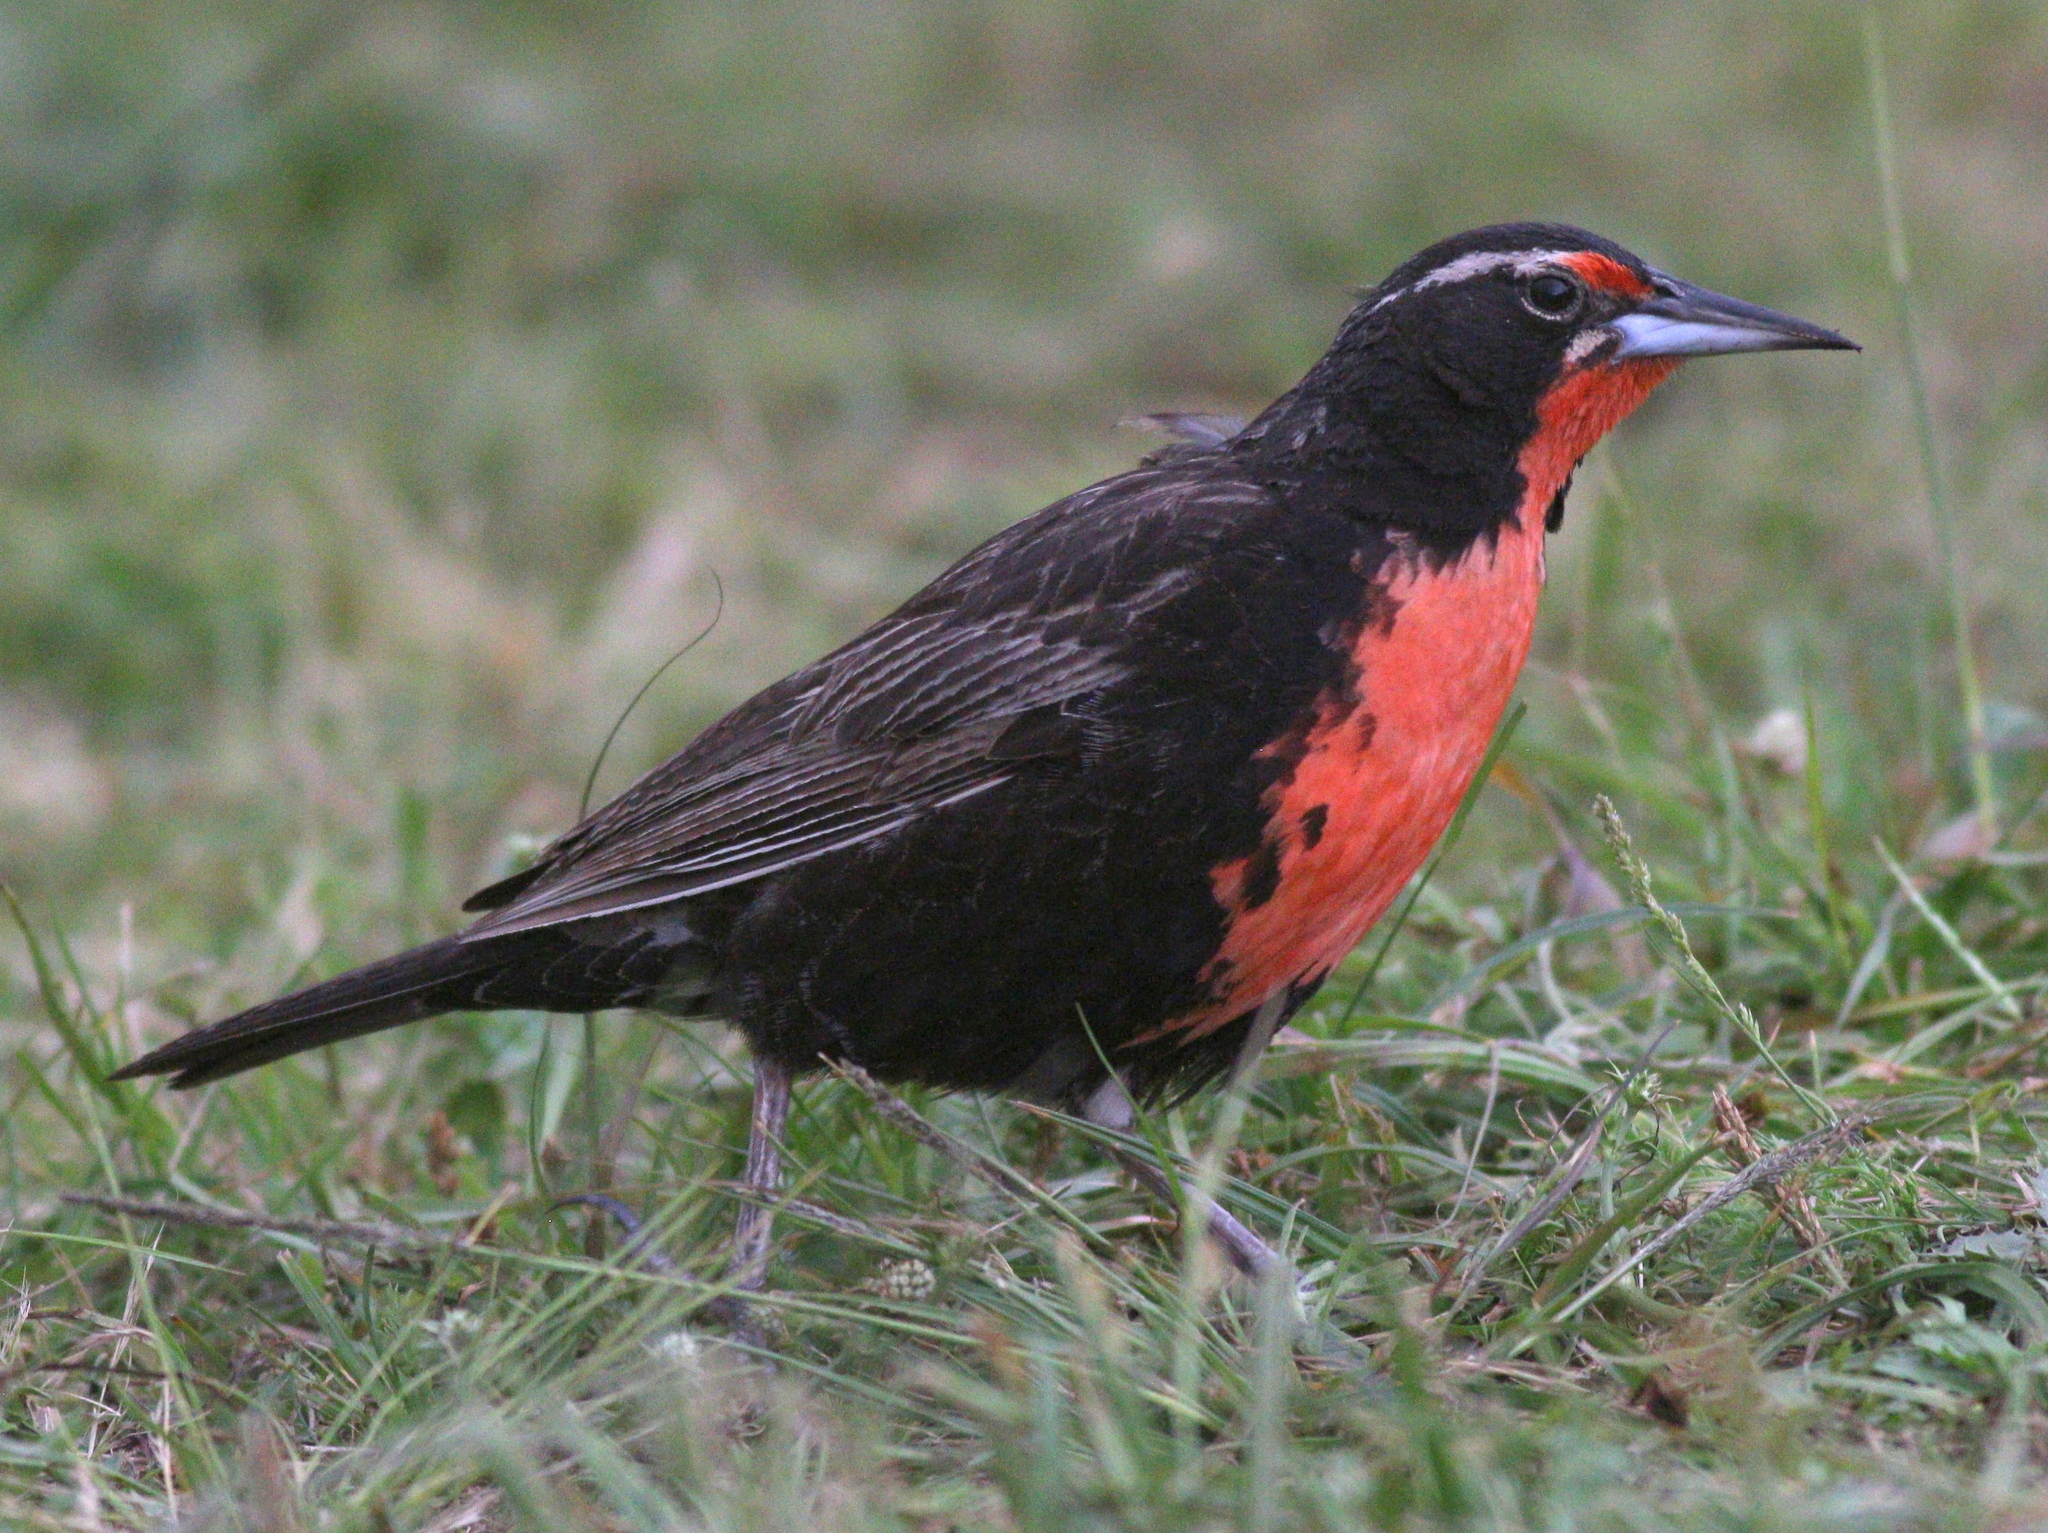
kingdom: Animalia
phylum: Chordata
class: Aves
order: Passeriformes
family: Icteridae
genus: Sturnella
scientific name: Sturnella loyca
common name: Long-tailed meadowlark
